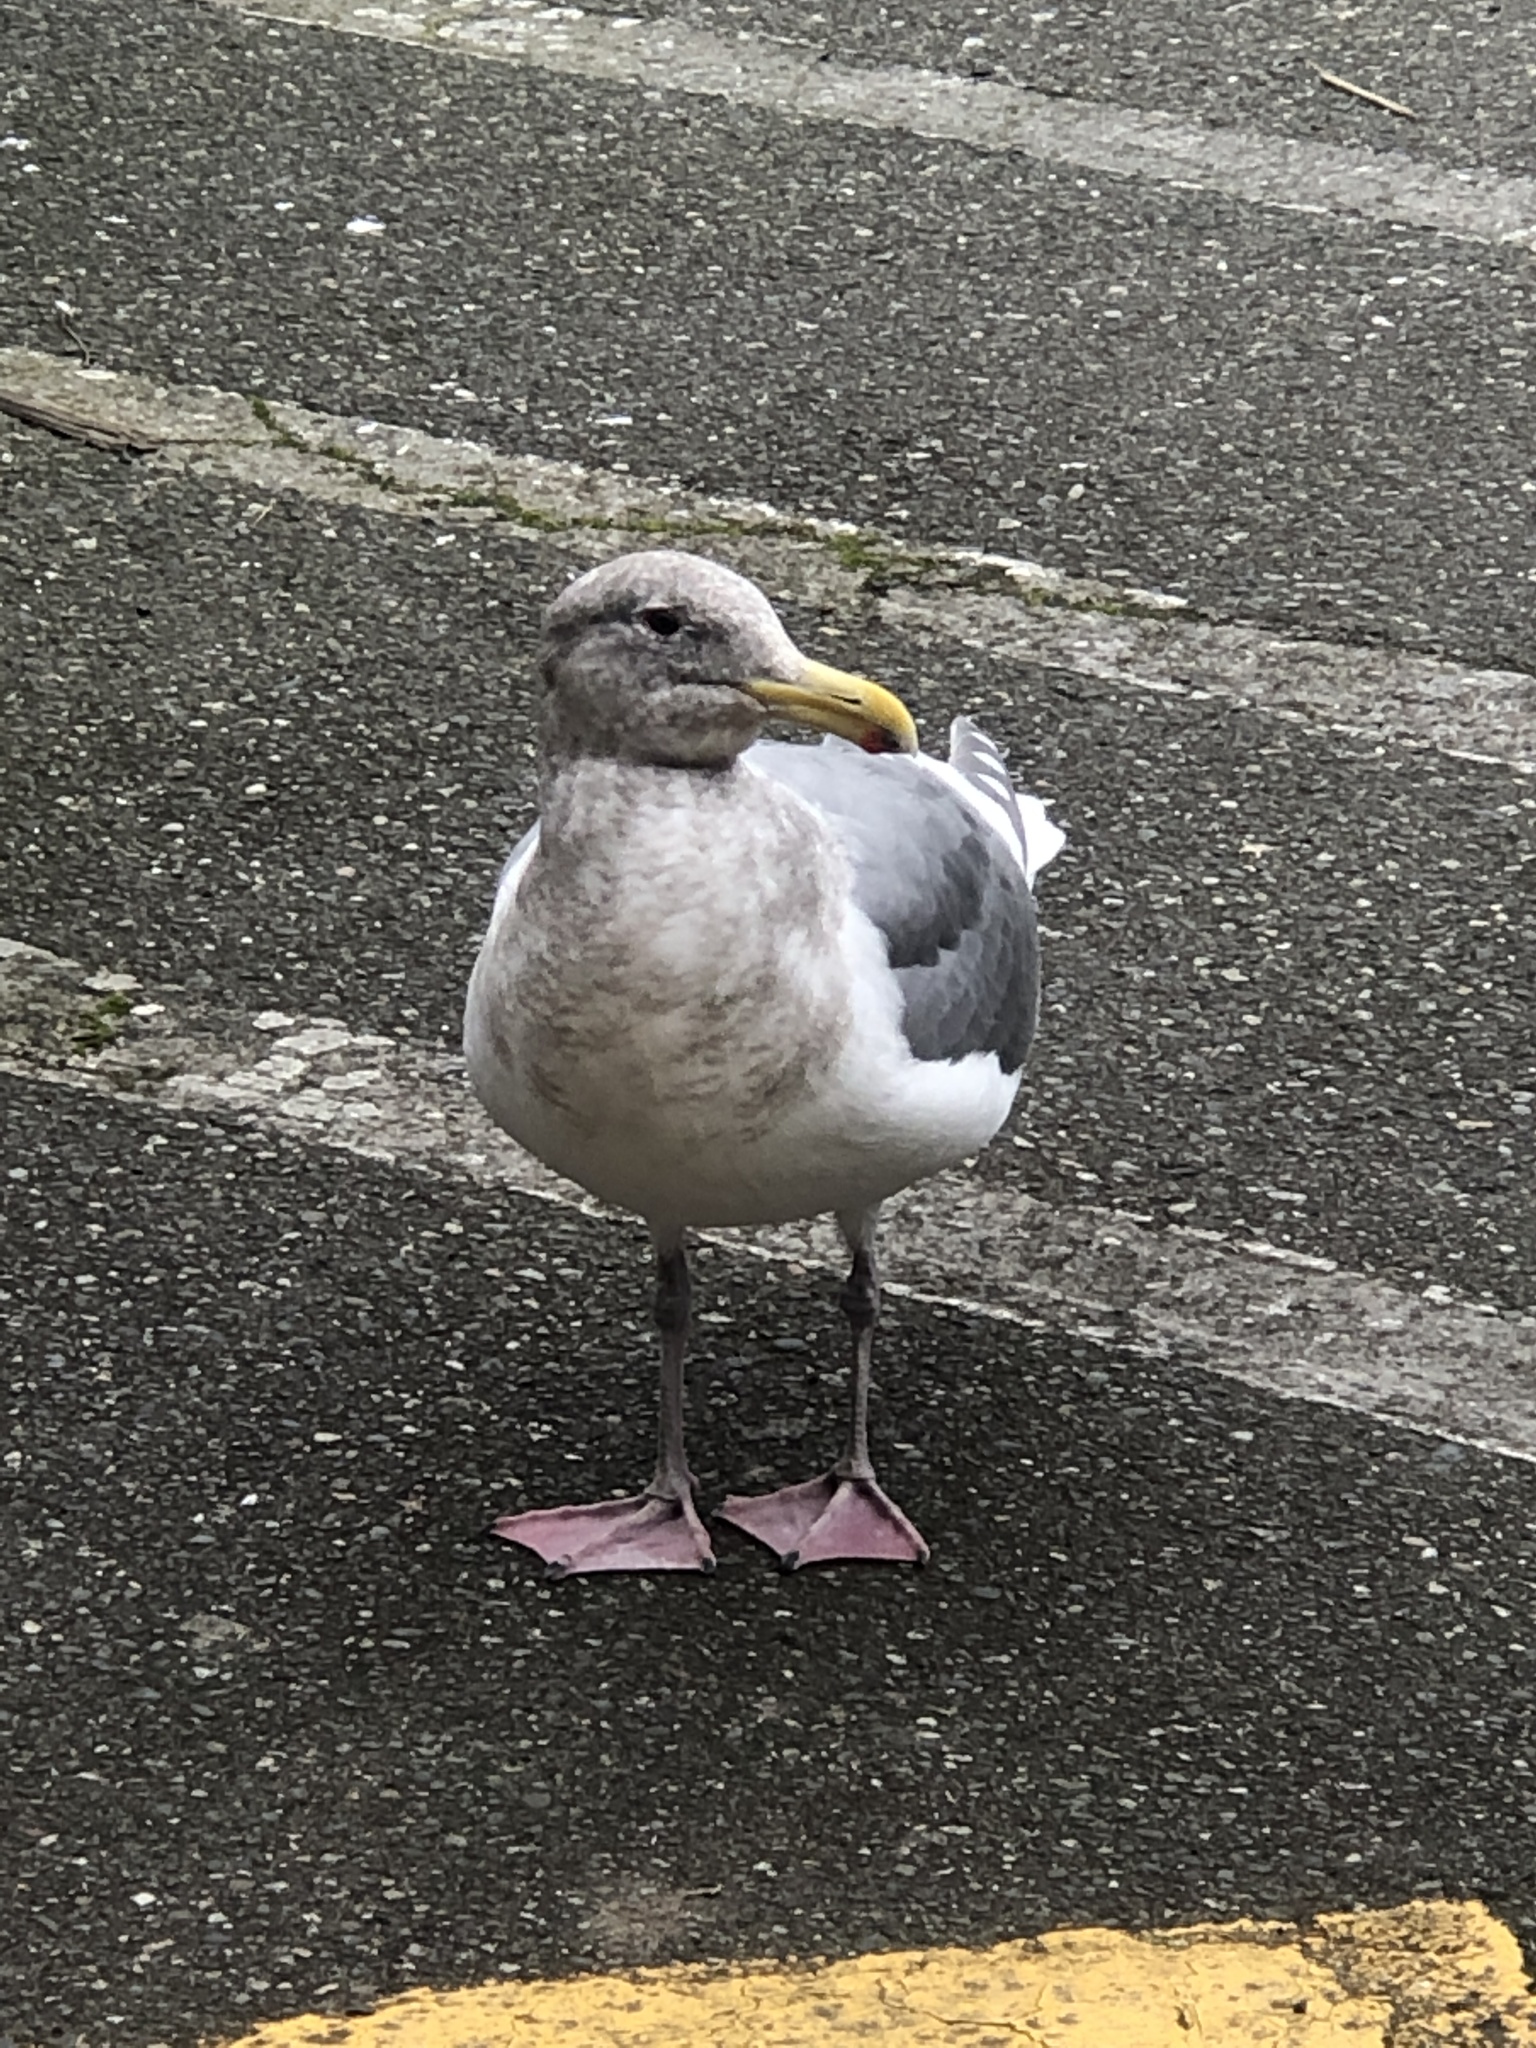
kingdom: Animalia
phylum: Chordata
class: Aves
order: Charadriiformes
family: Laridae
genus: Larus
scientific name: Larus
